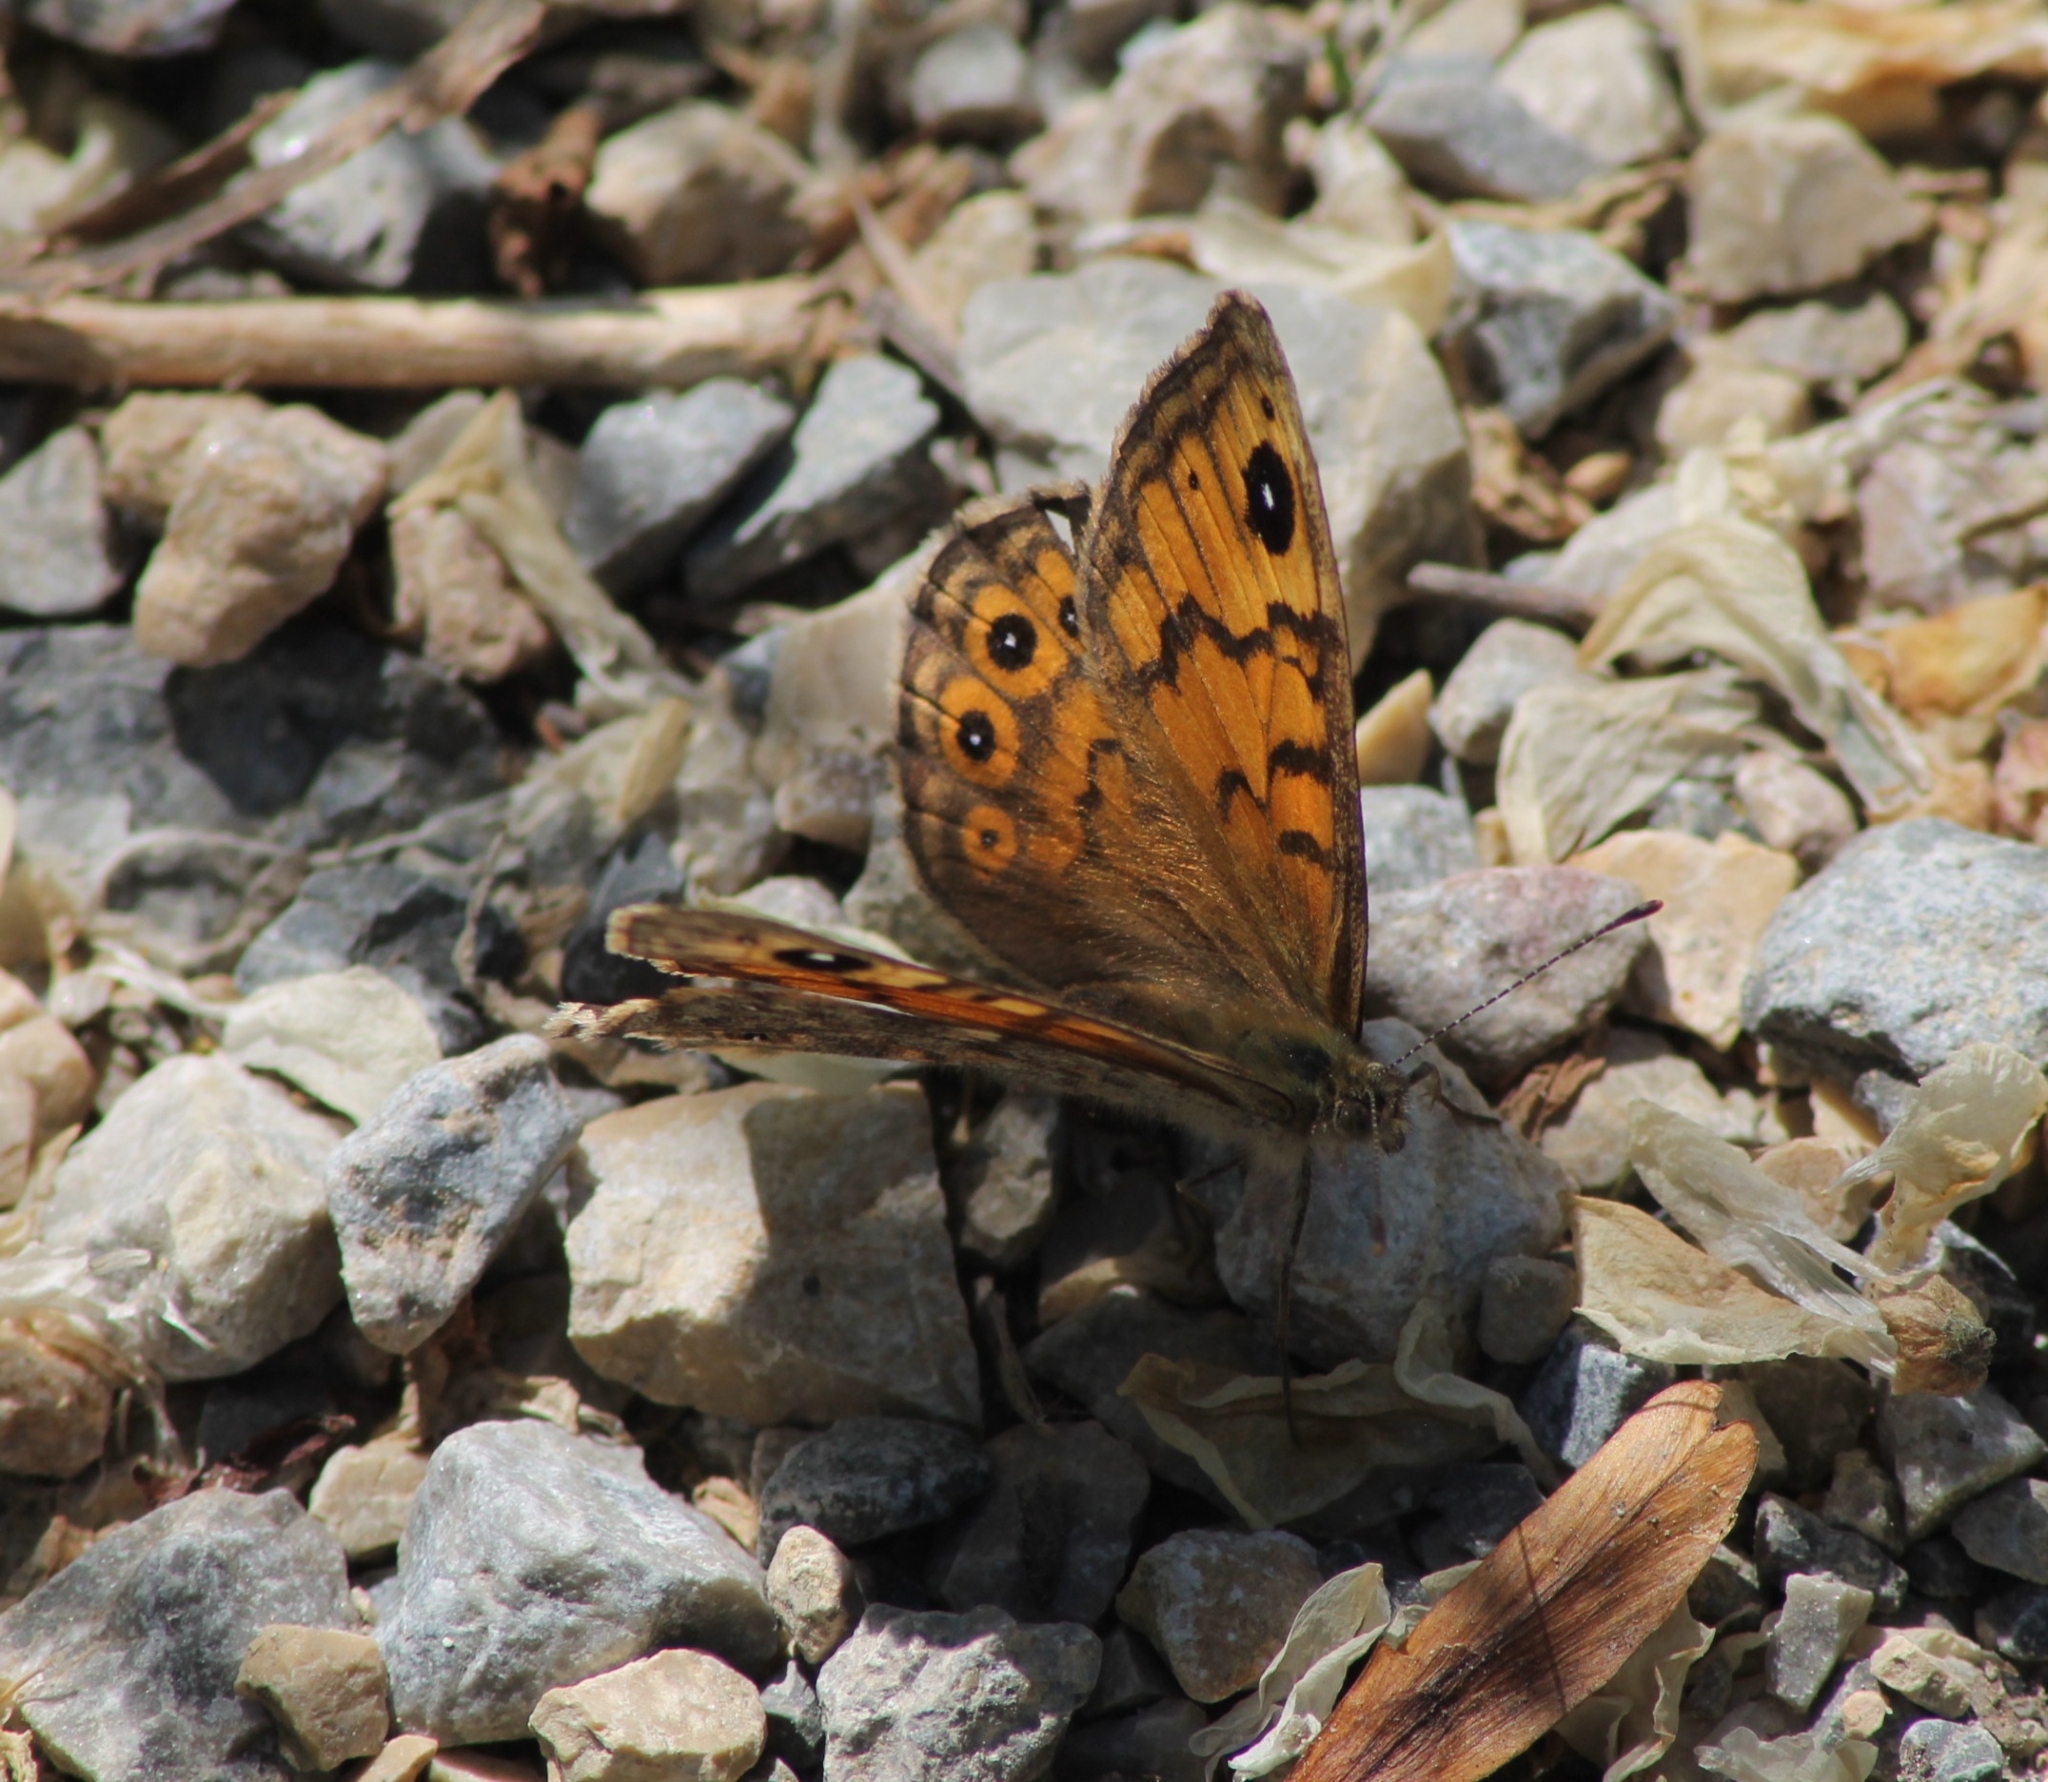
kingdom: Animalia
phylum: Arthropoda
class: Insecta
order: Lepidoptera
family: Nymphalidae
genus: Pararge
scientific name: Pararge Lasiommata megera
